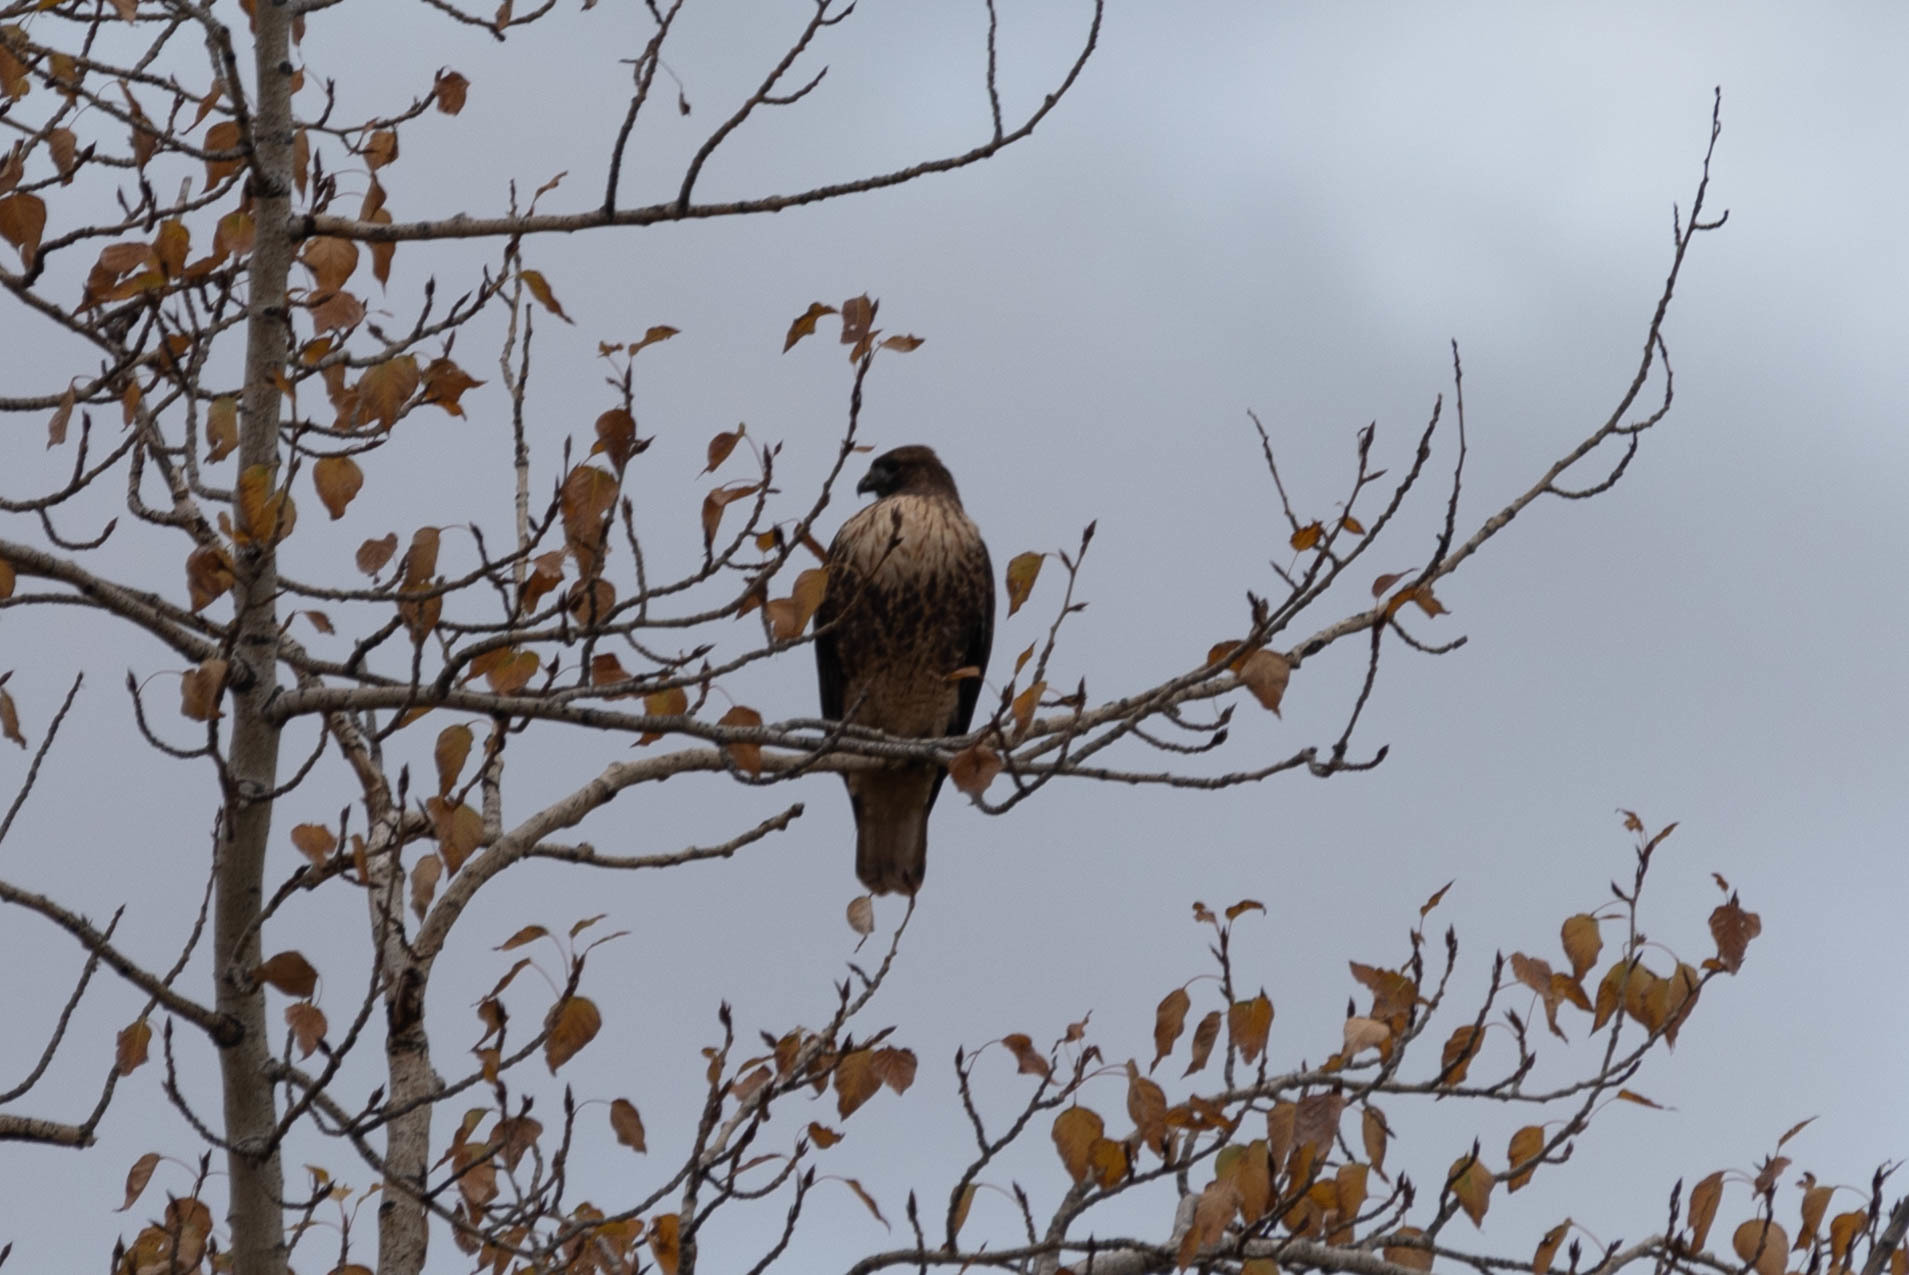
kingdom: Animalia
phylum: Chordata
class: Aves
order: Accipitriformes
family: Accipitridae
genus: Buteo
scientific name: Buteo jamaicensis
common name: Red-tailed hawk
